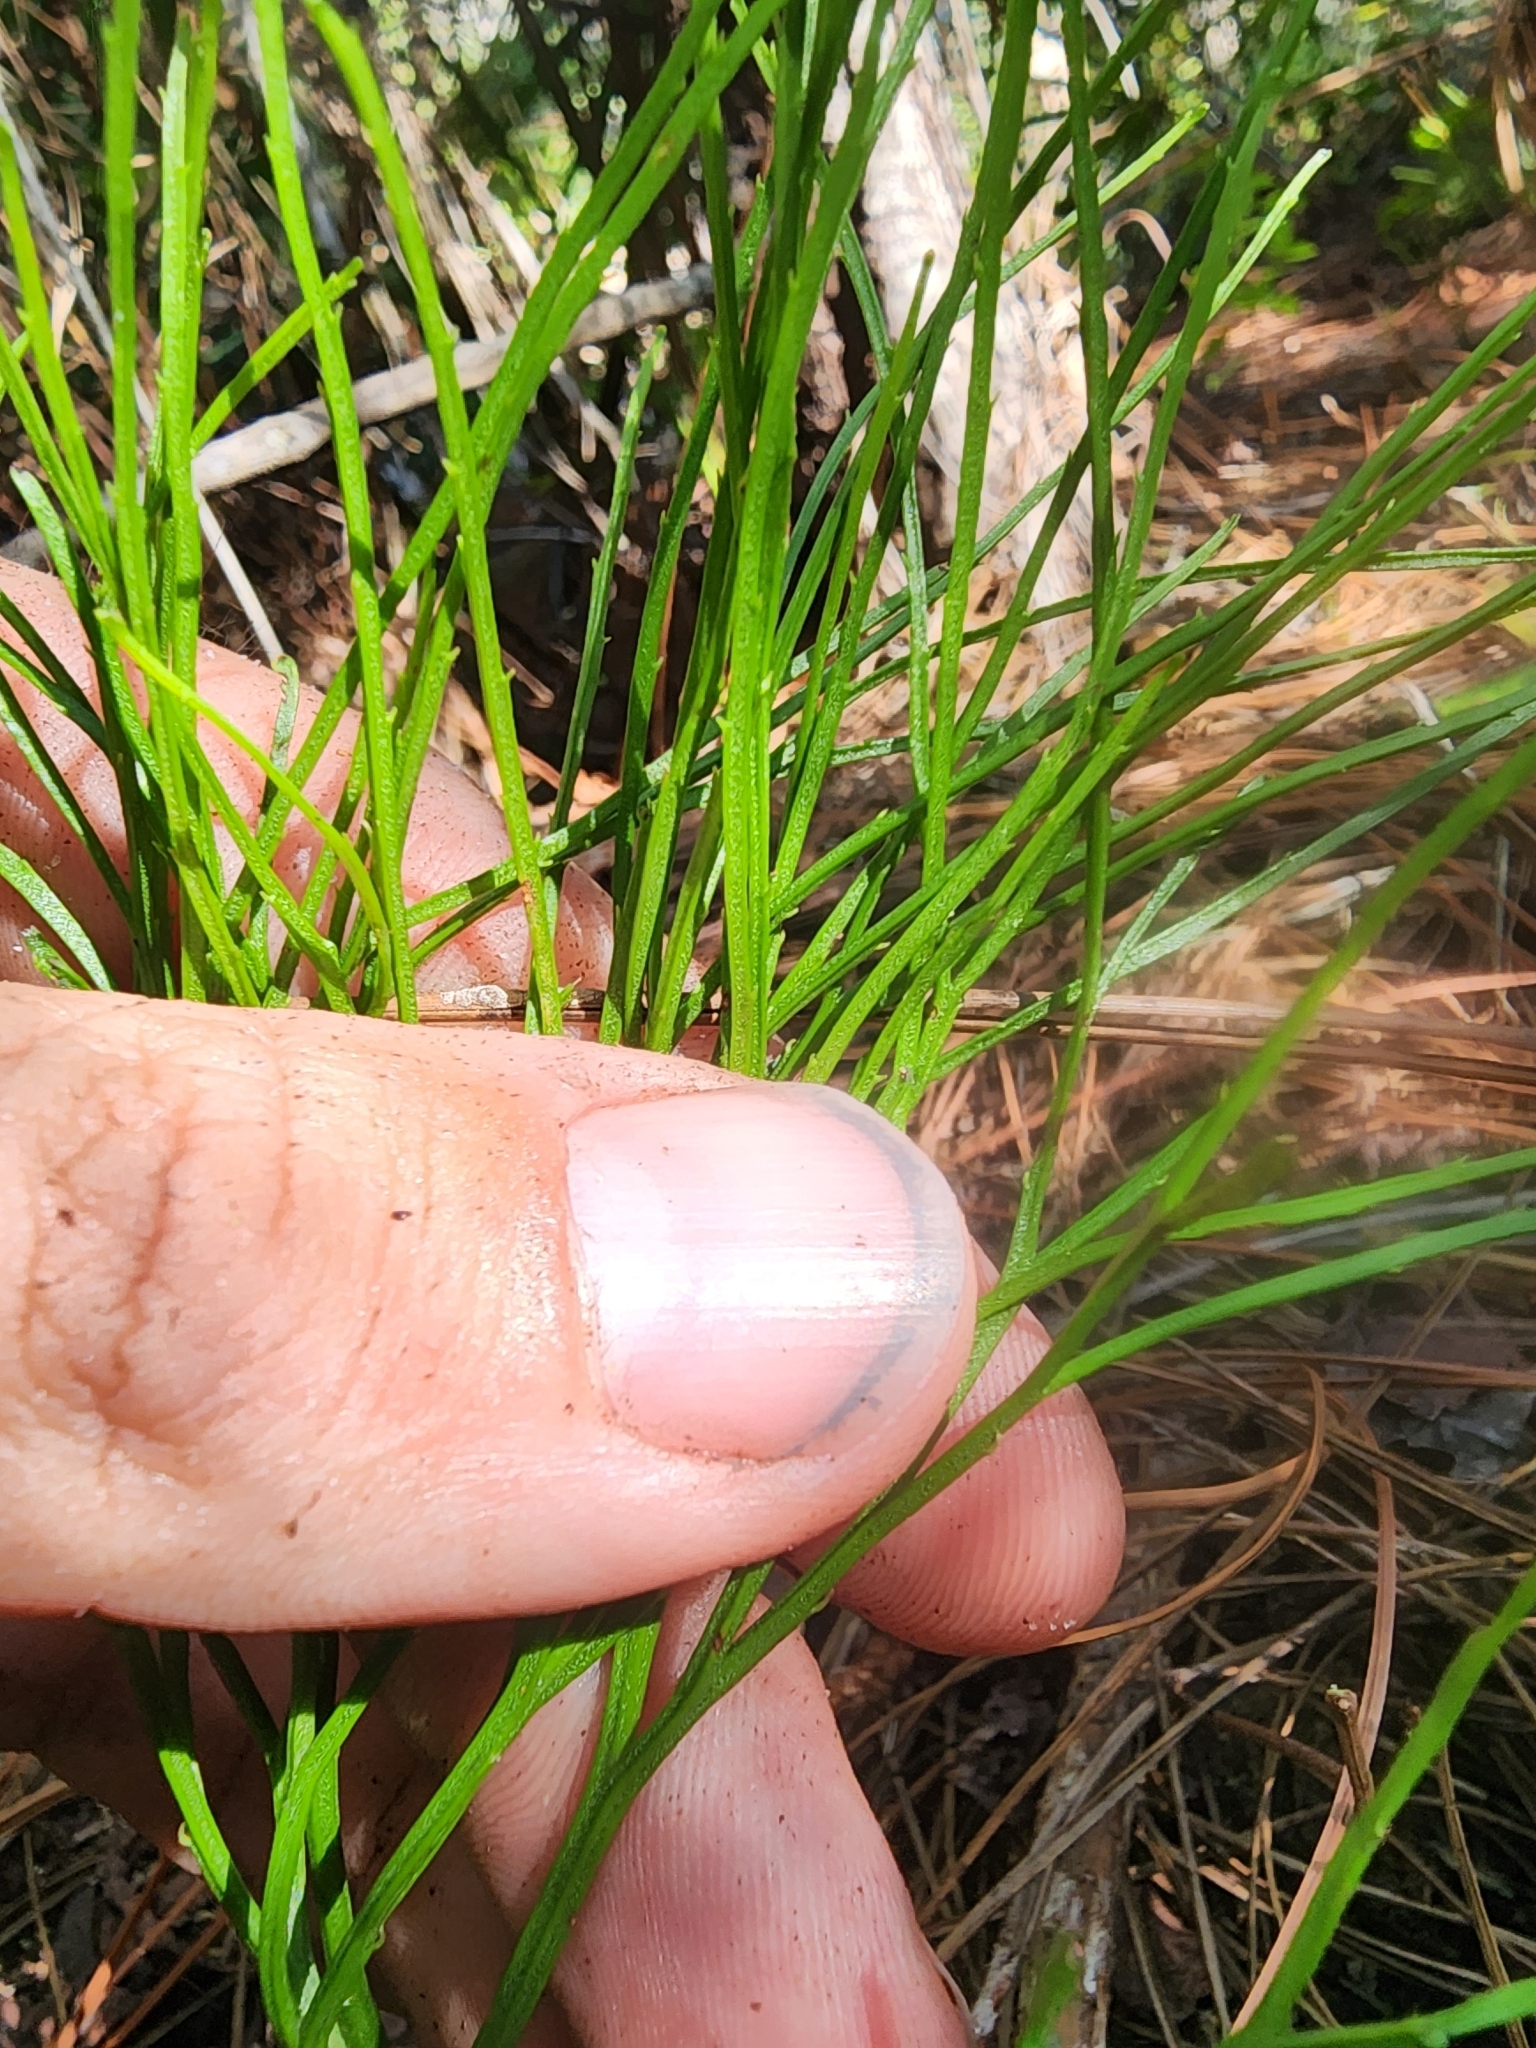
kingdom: Plantae
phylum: Tracheophyta
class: Polypodiopsida
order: Psilotales
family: Psilotaceae
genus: Psilotum
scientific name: Psilotum nudum
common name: Skeleton fork fern
